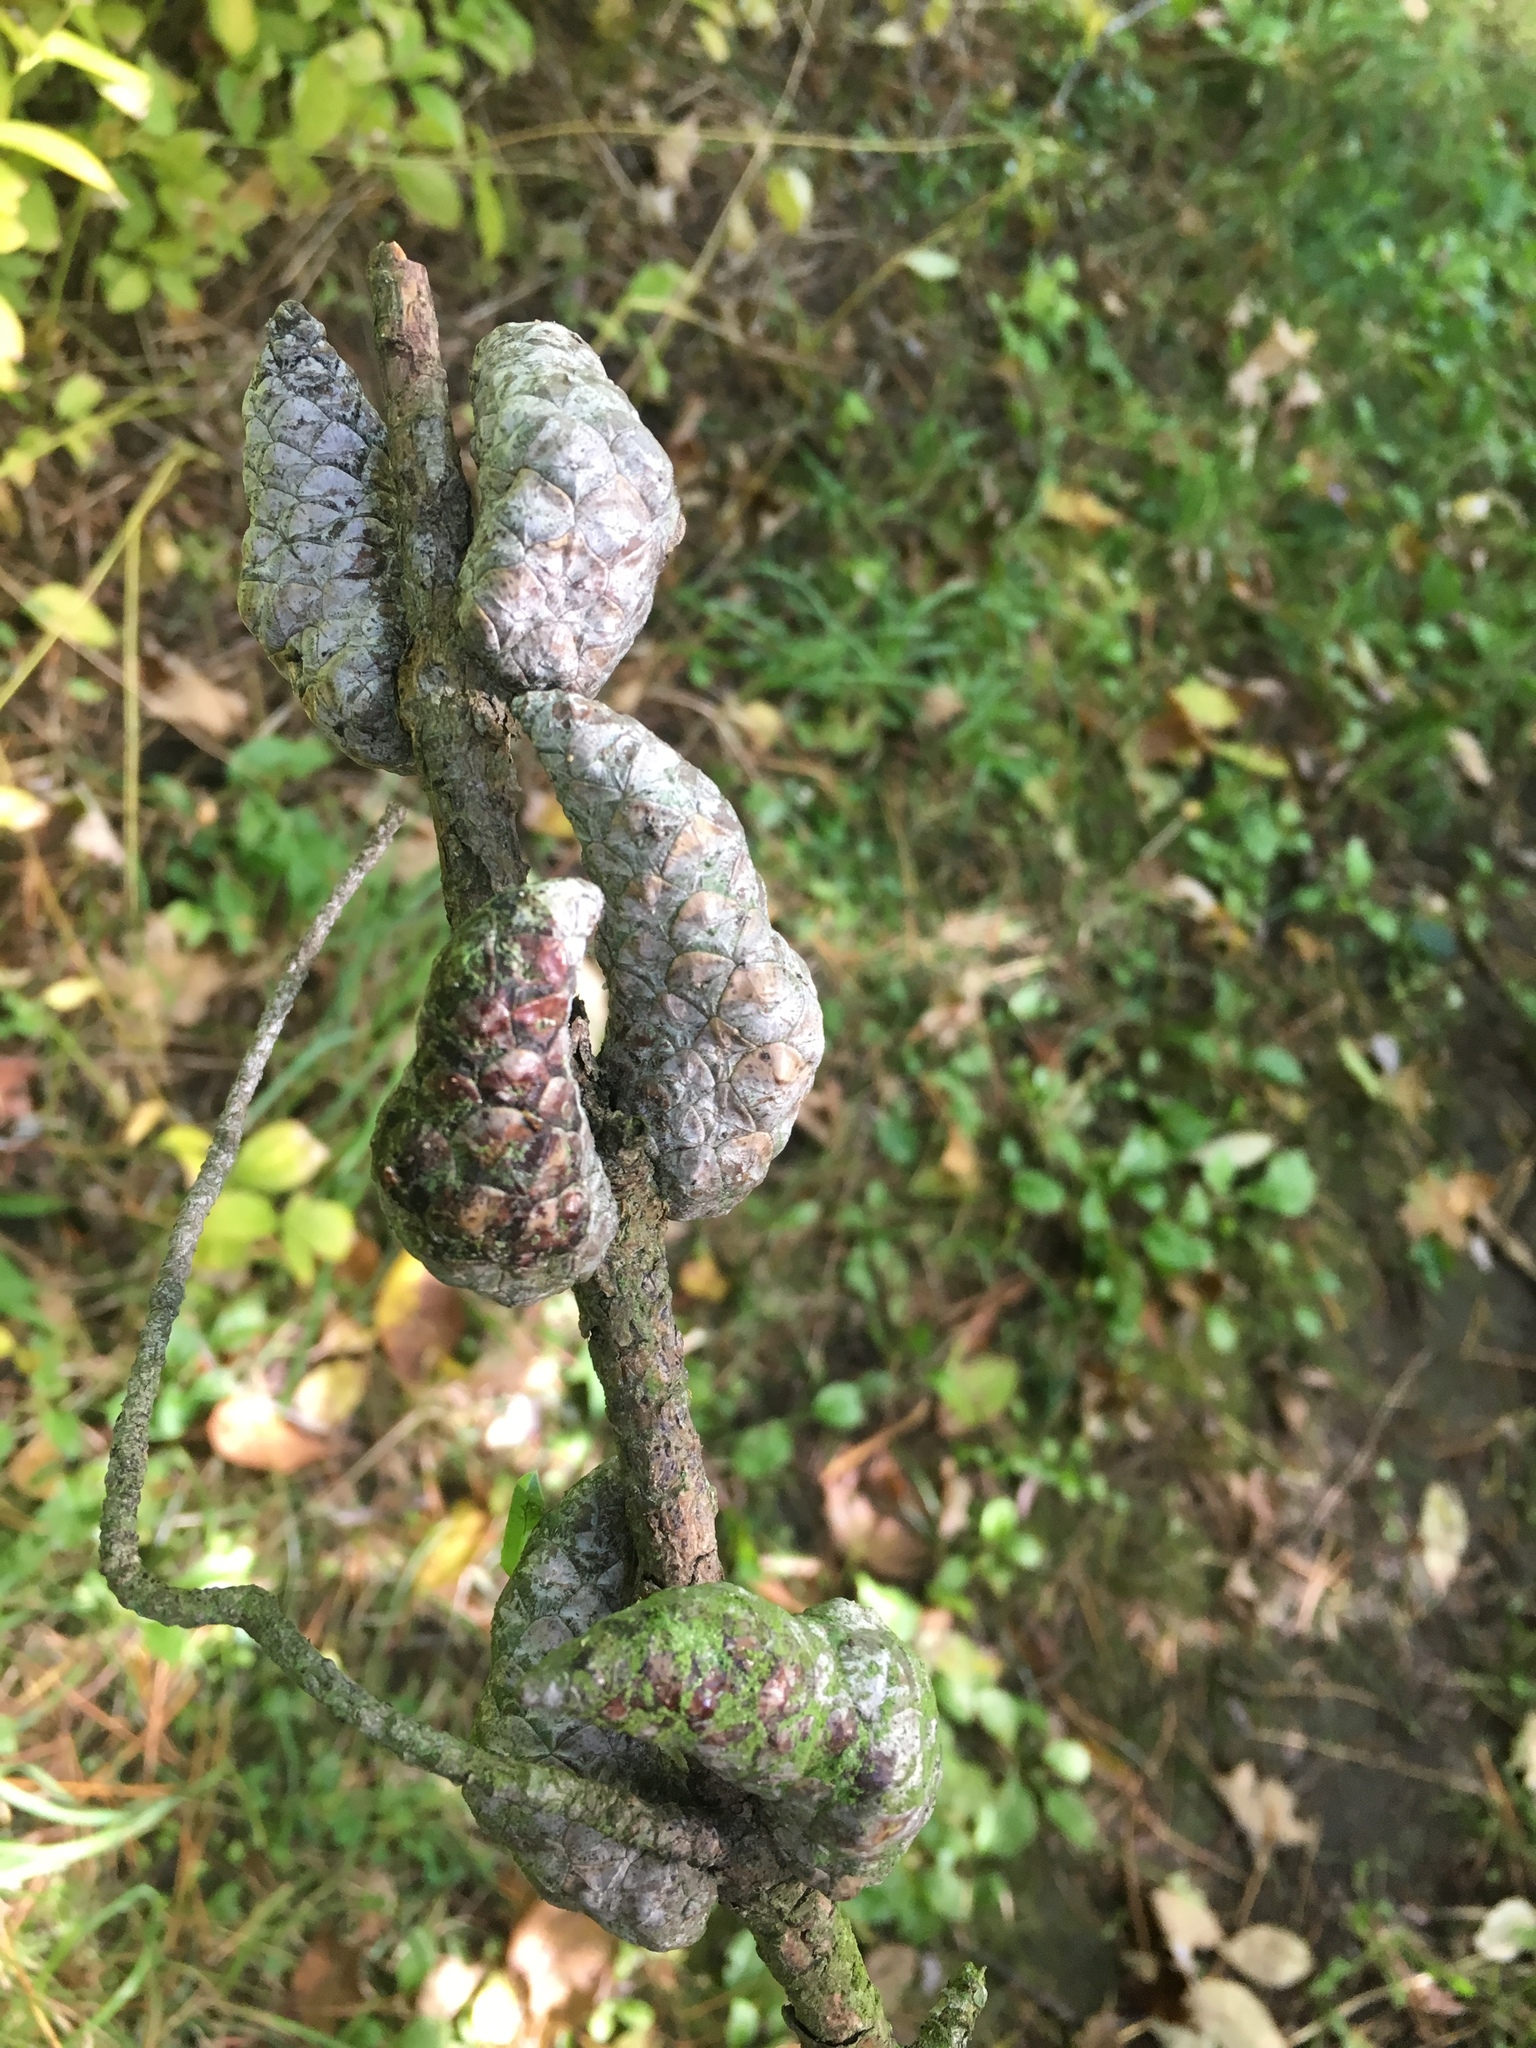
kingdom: Plantae
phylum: Tracheophyta
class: Pinopsida
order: Pinales
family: Pinaceae
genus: Pinus
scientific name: Pinus banksiana
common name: Jack pine
